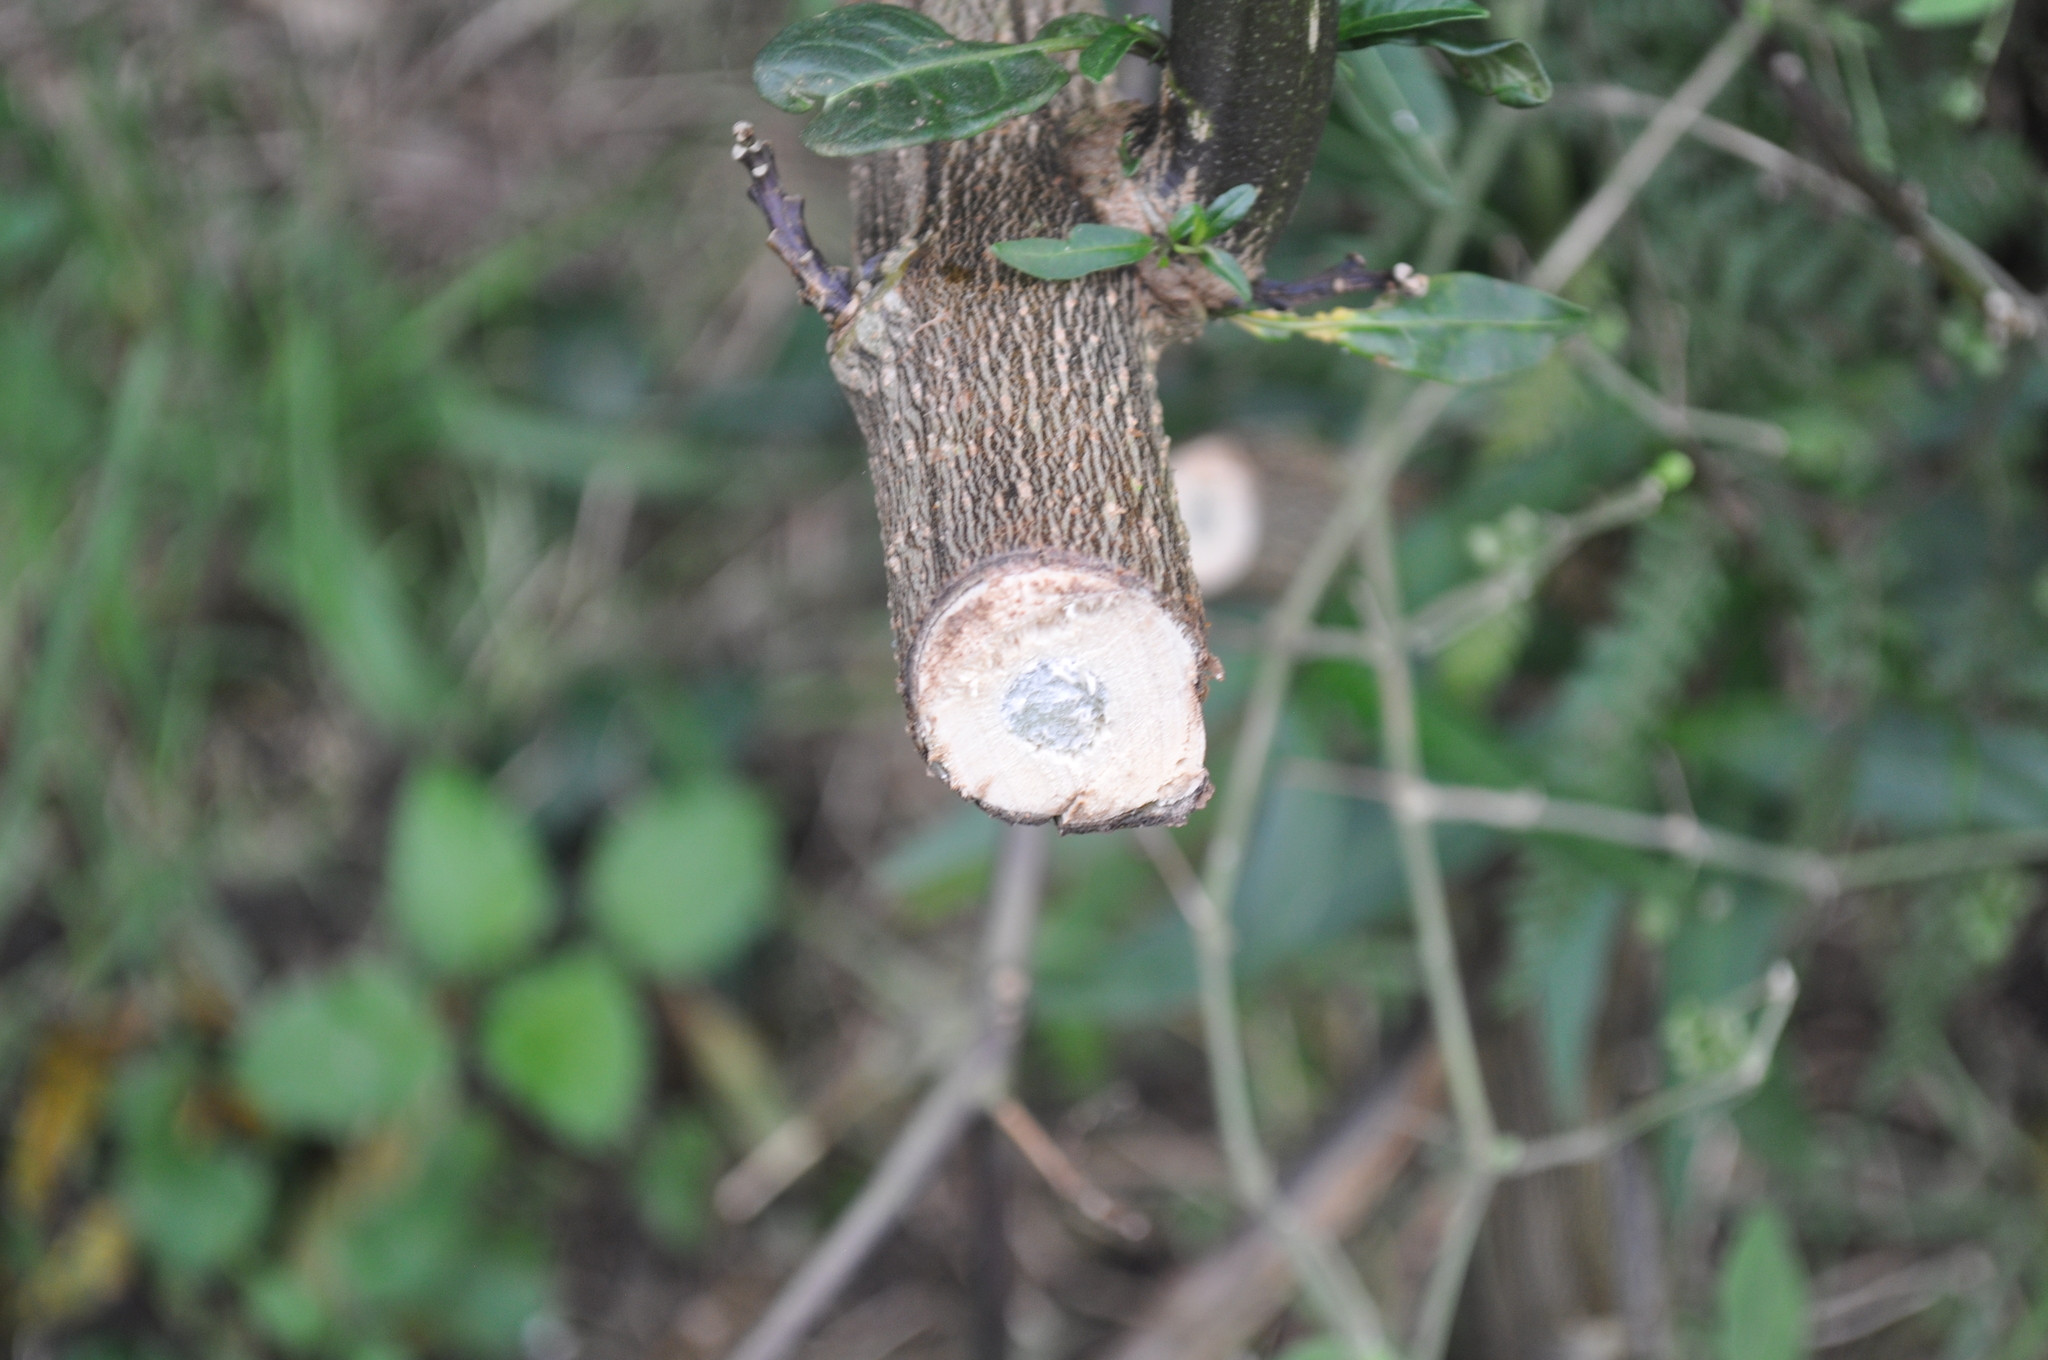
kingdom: Plantae
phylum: Tracheophyta
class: Magnoliopsida
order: Solanales
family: Solanaceae
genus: Solanum
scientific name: Solanum
